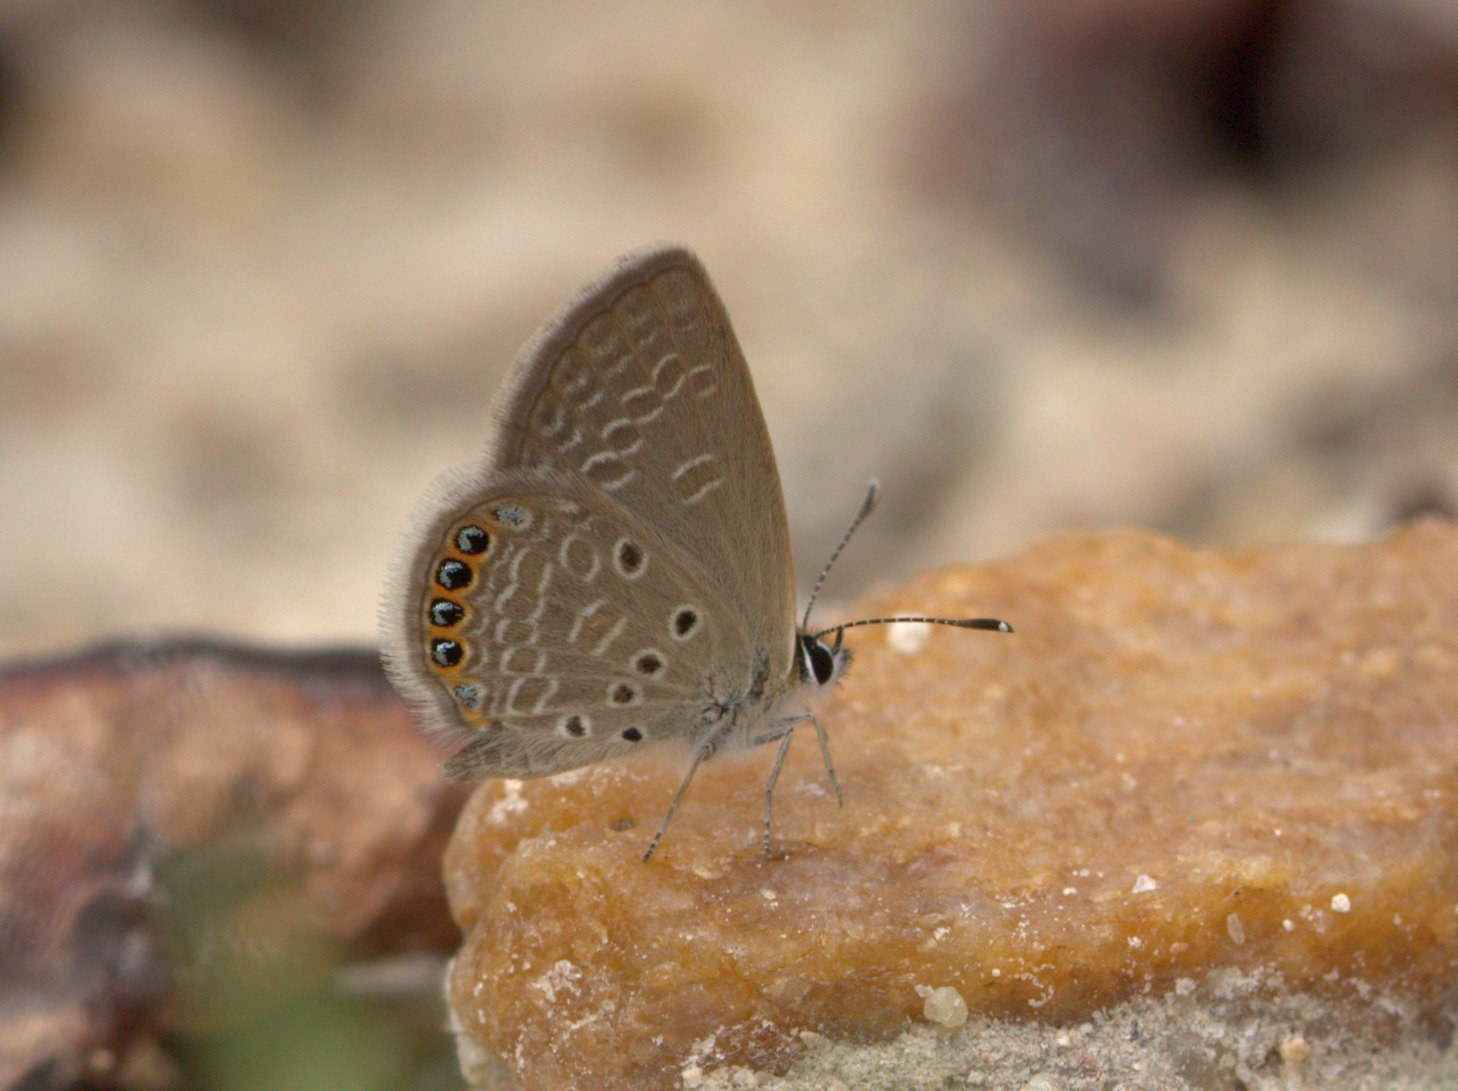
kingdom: Animalia
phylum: Arthropoda
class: Insecta
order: Lepidoptera
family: Lycaenidae
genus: Freyeria
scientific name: Freyeria putli
